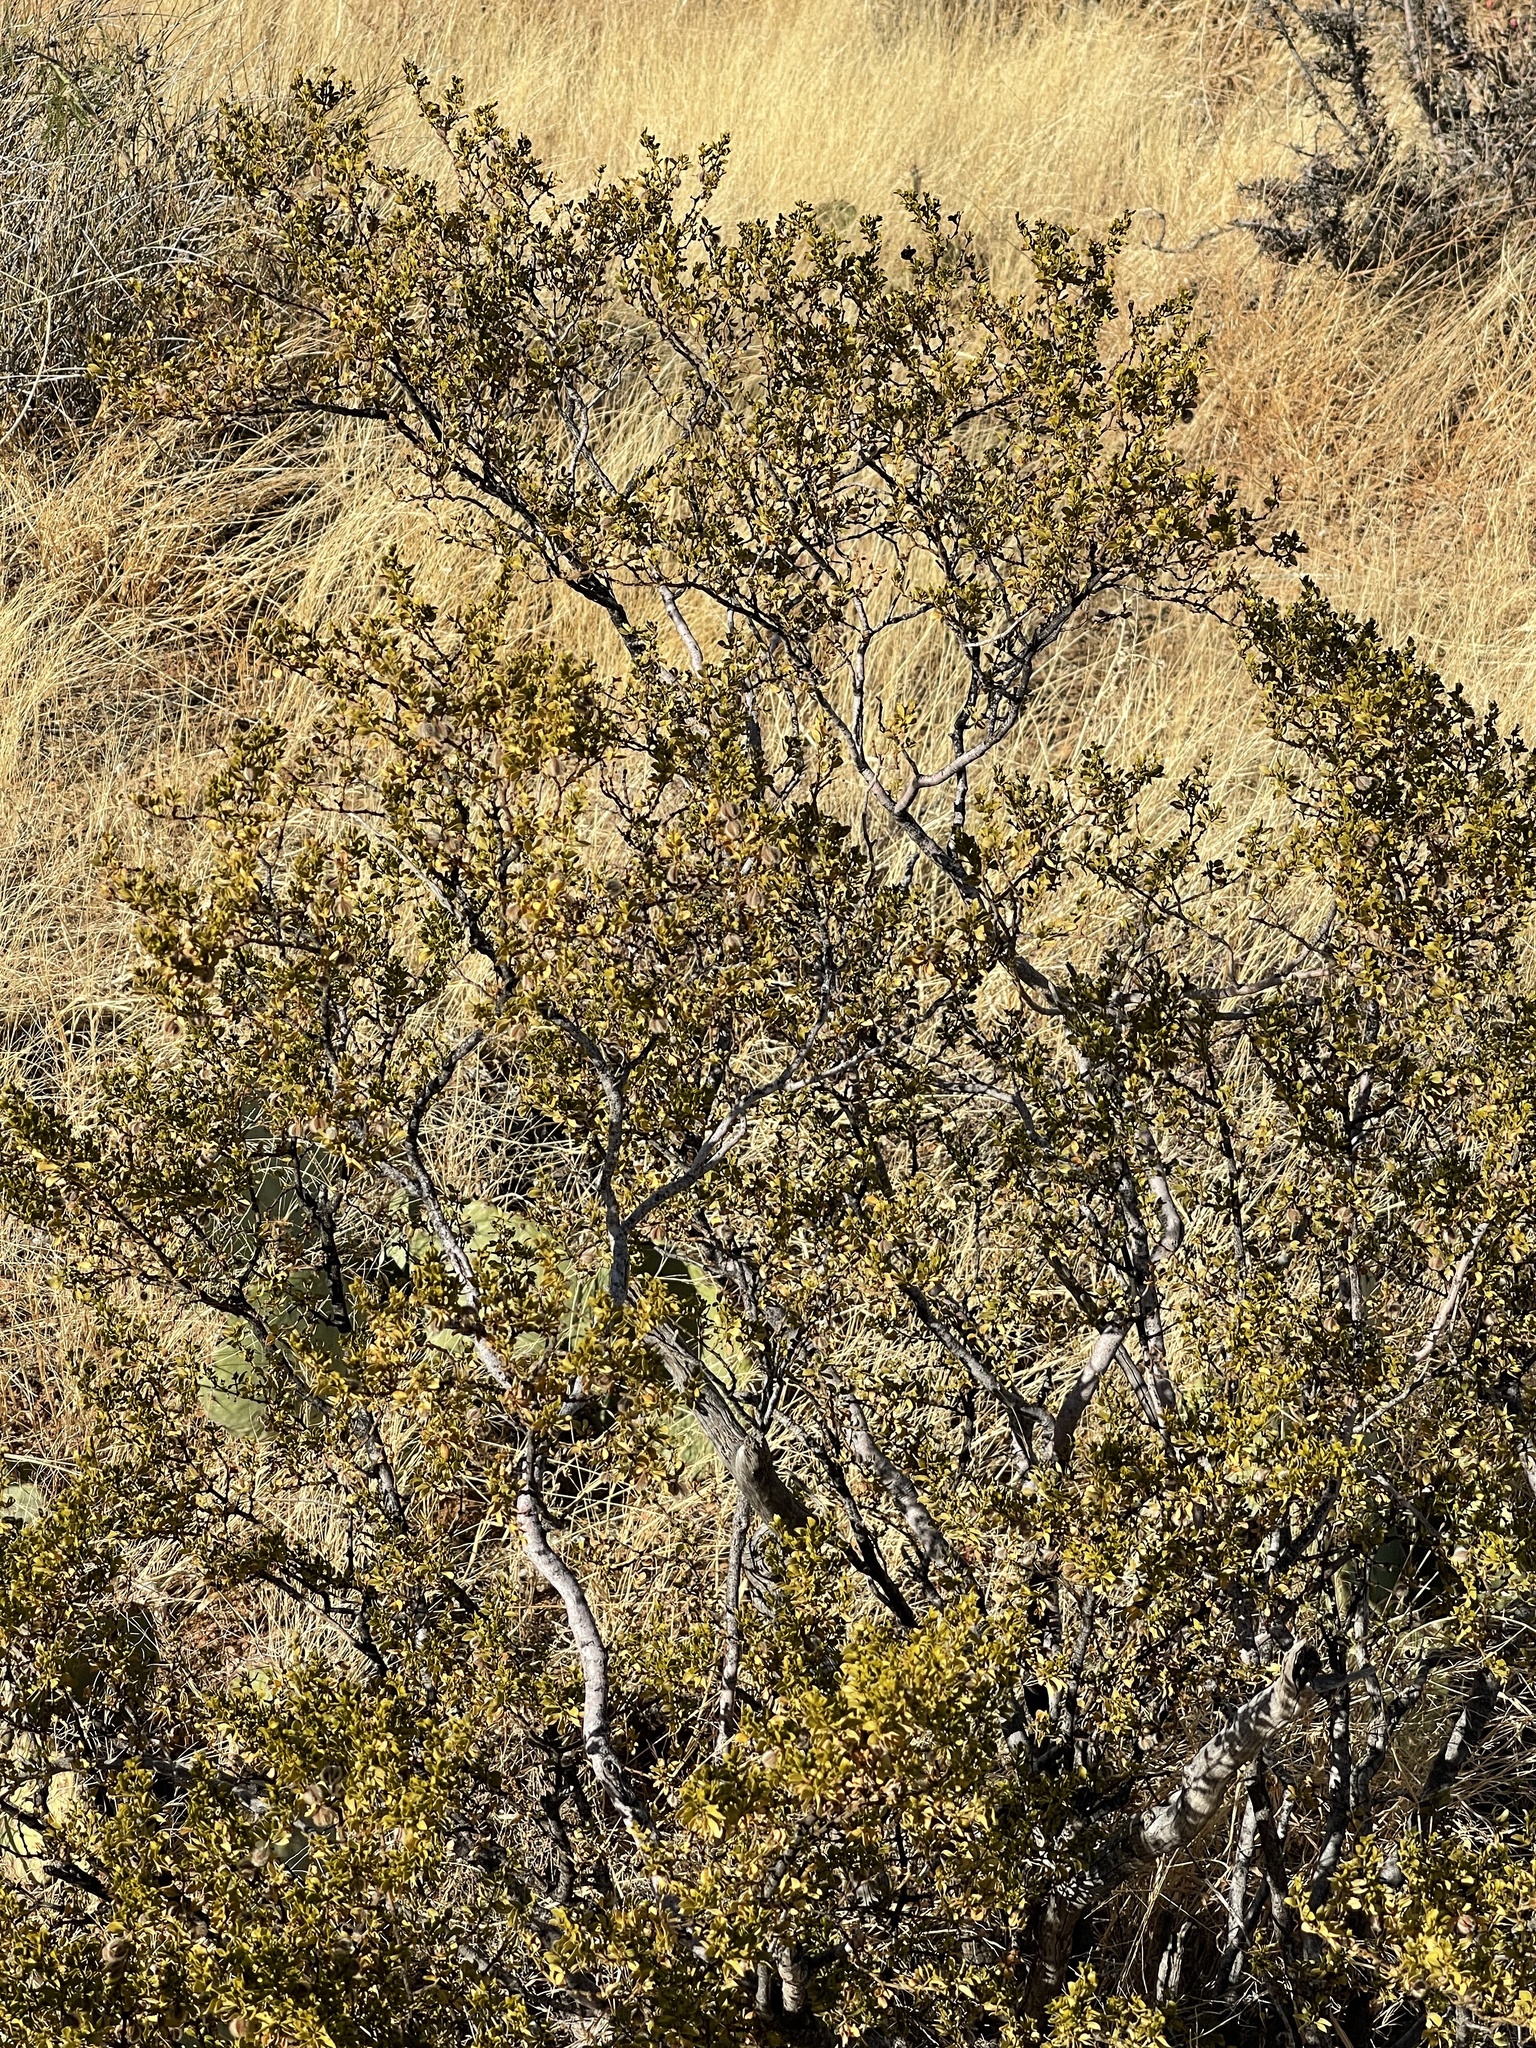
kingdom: Plantae
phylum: Tracheophyta
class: Magnoliopsida
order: Zygophyllales
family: Zygophyllaceae
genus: Larrea
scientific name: Larrea tridentata
